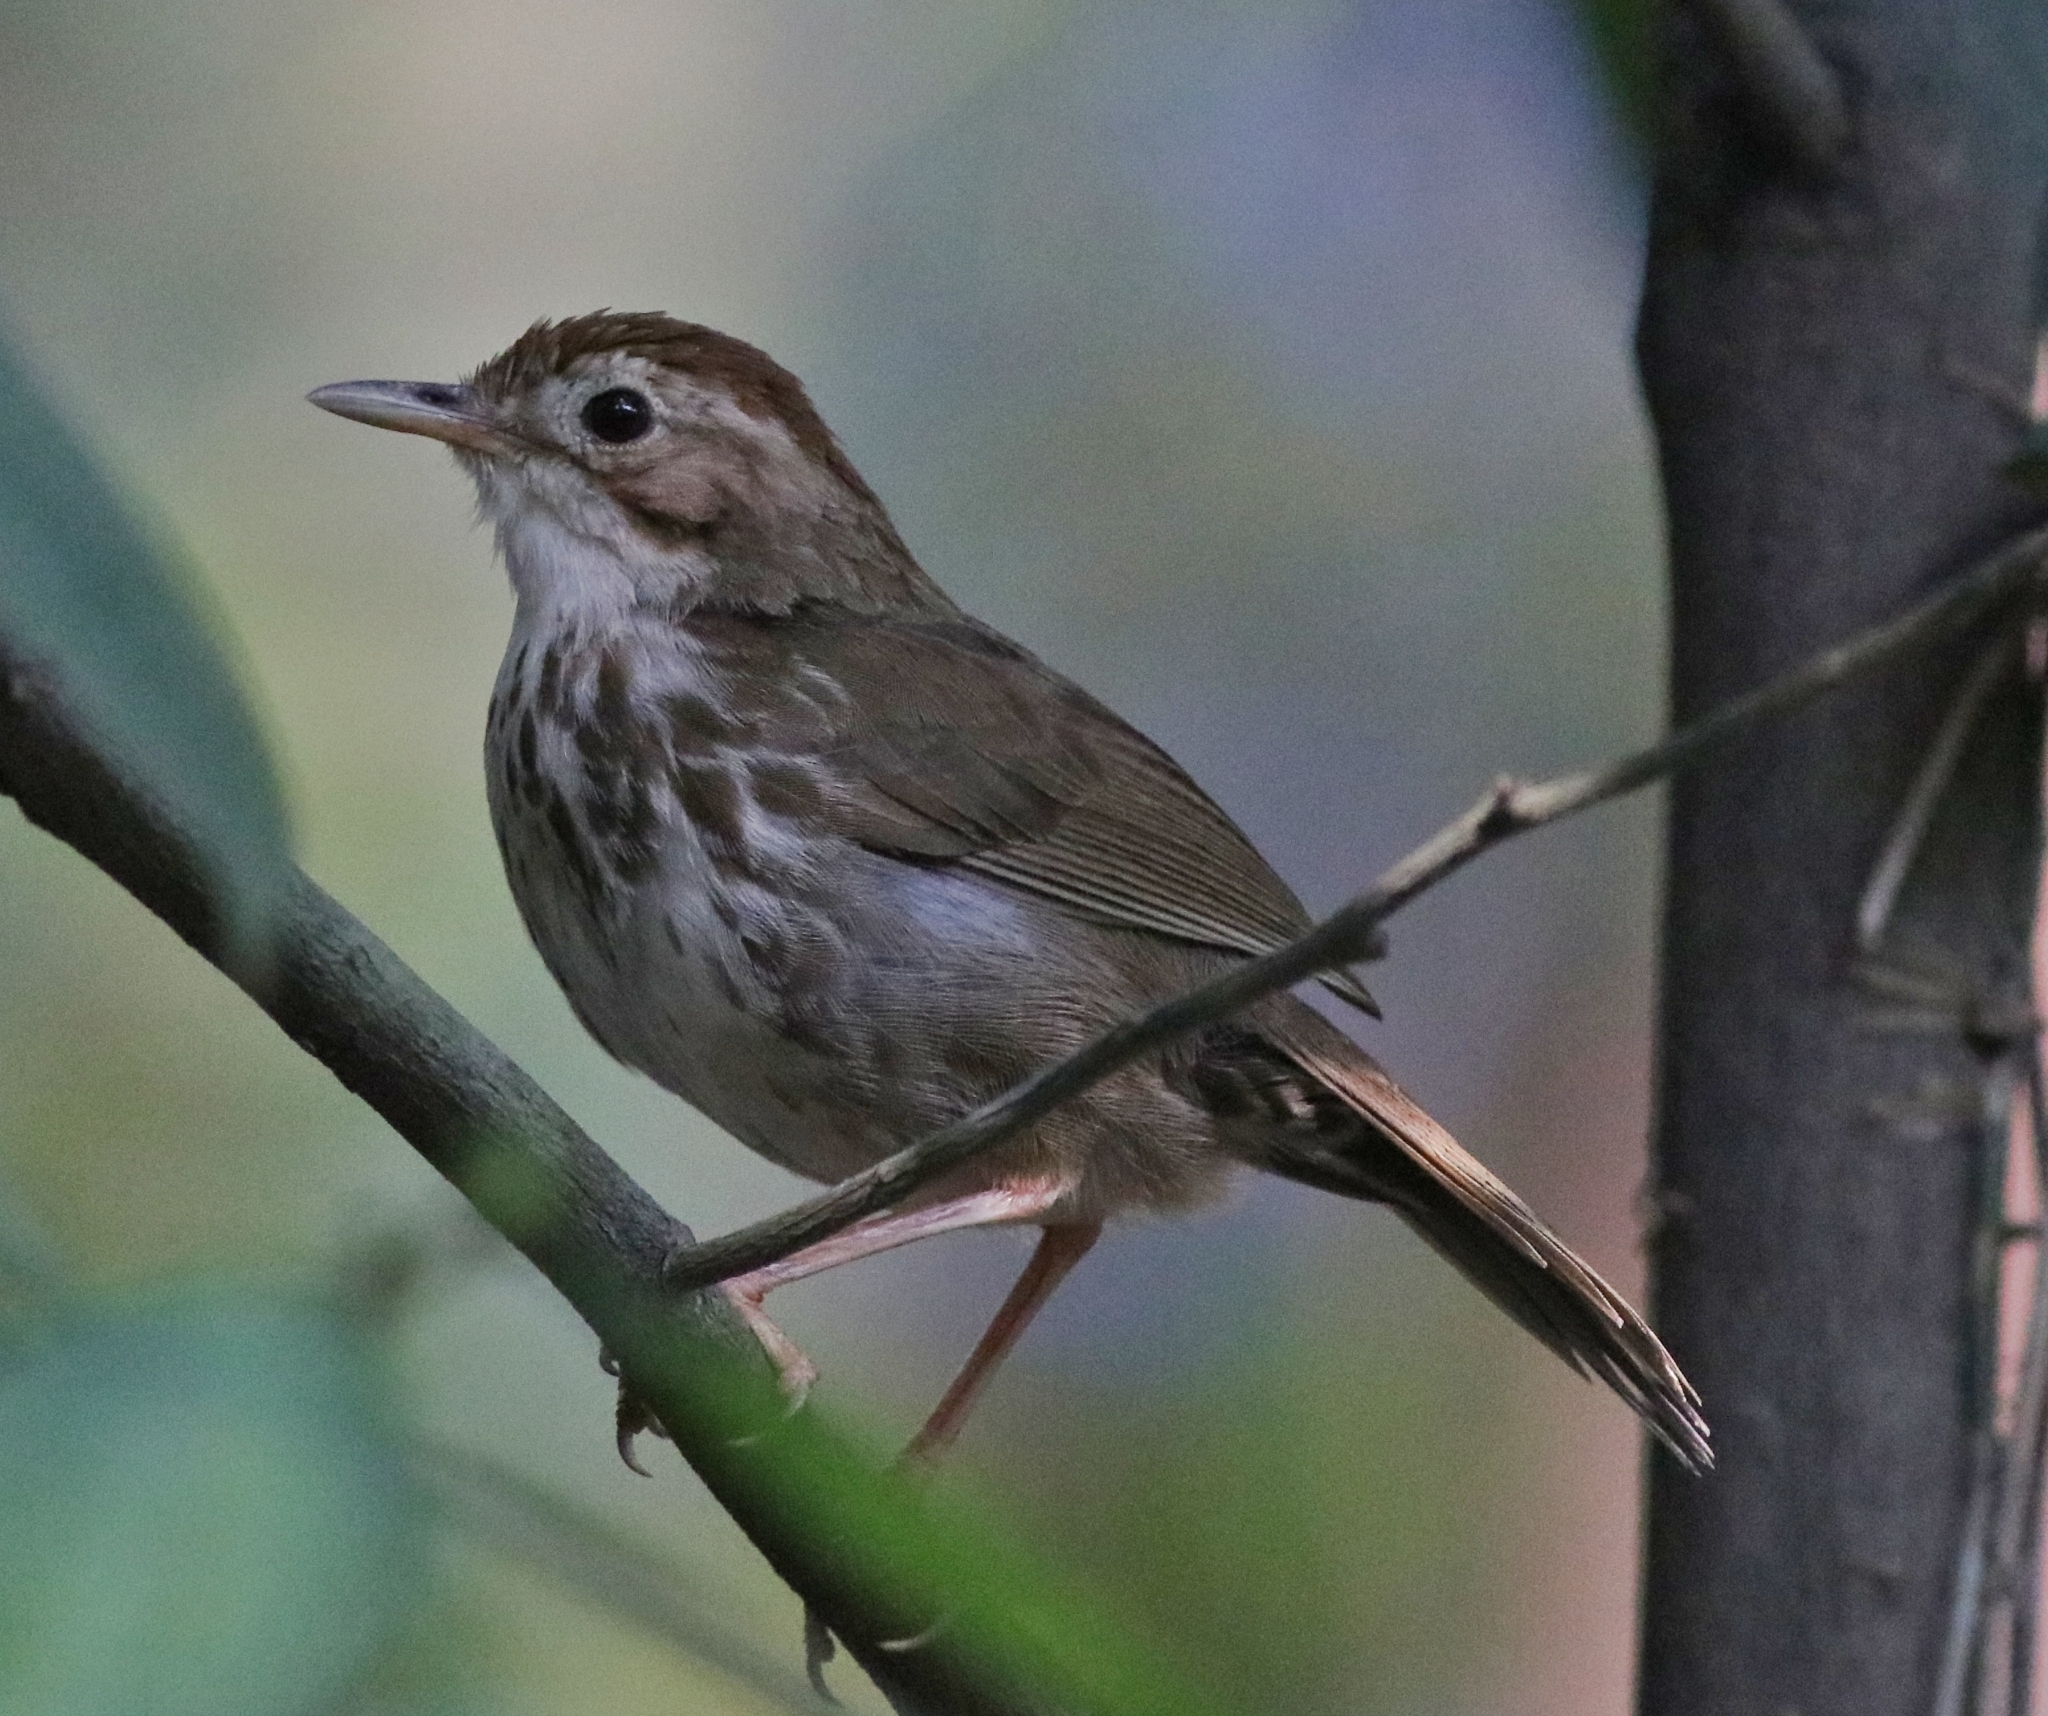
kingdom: Animalia
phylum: Chordata
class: Aves
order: Passeriformes
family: Pellorneidae
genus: Pellorneum
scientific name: Pellorneum ruficeps
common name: Puff-throated babbler
